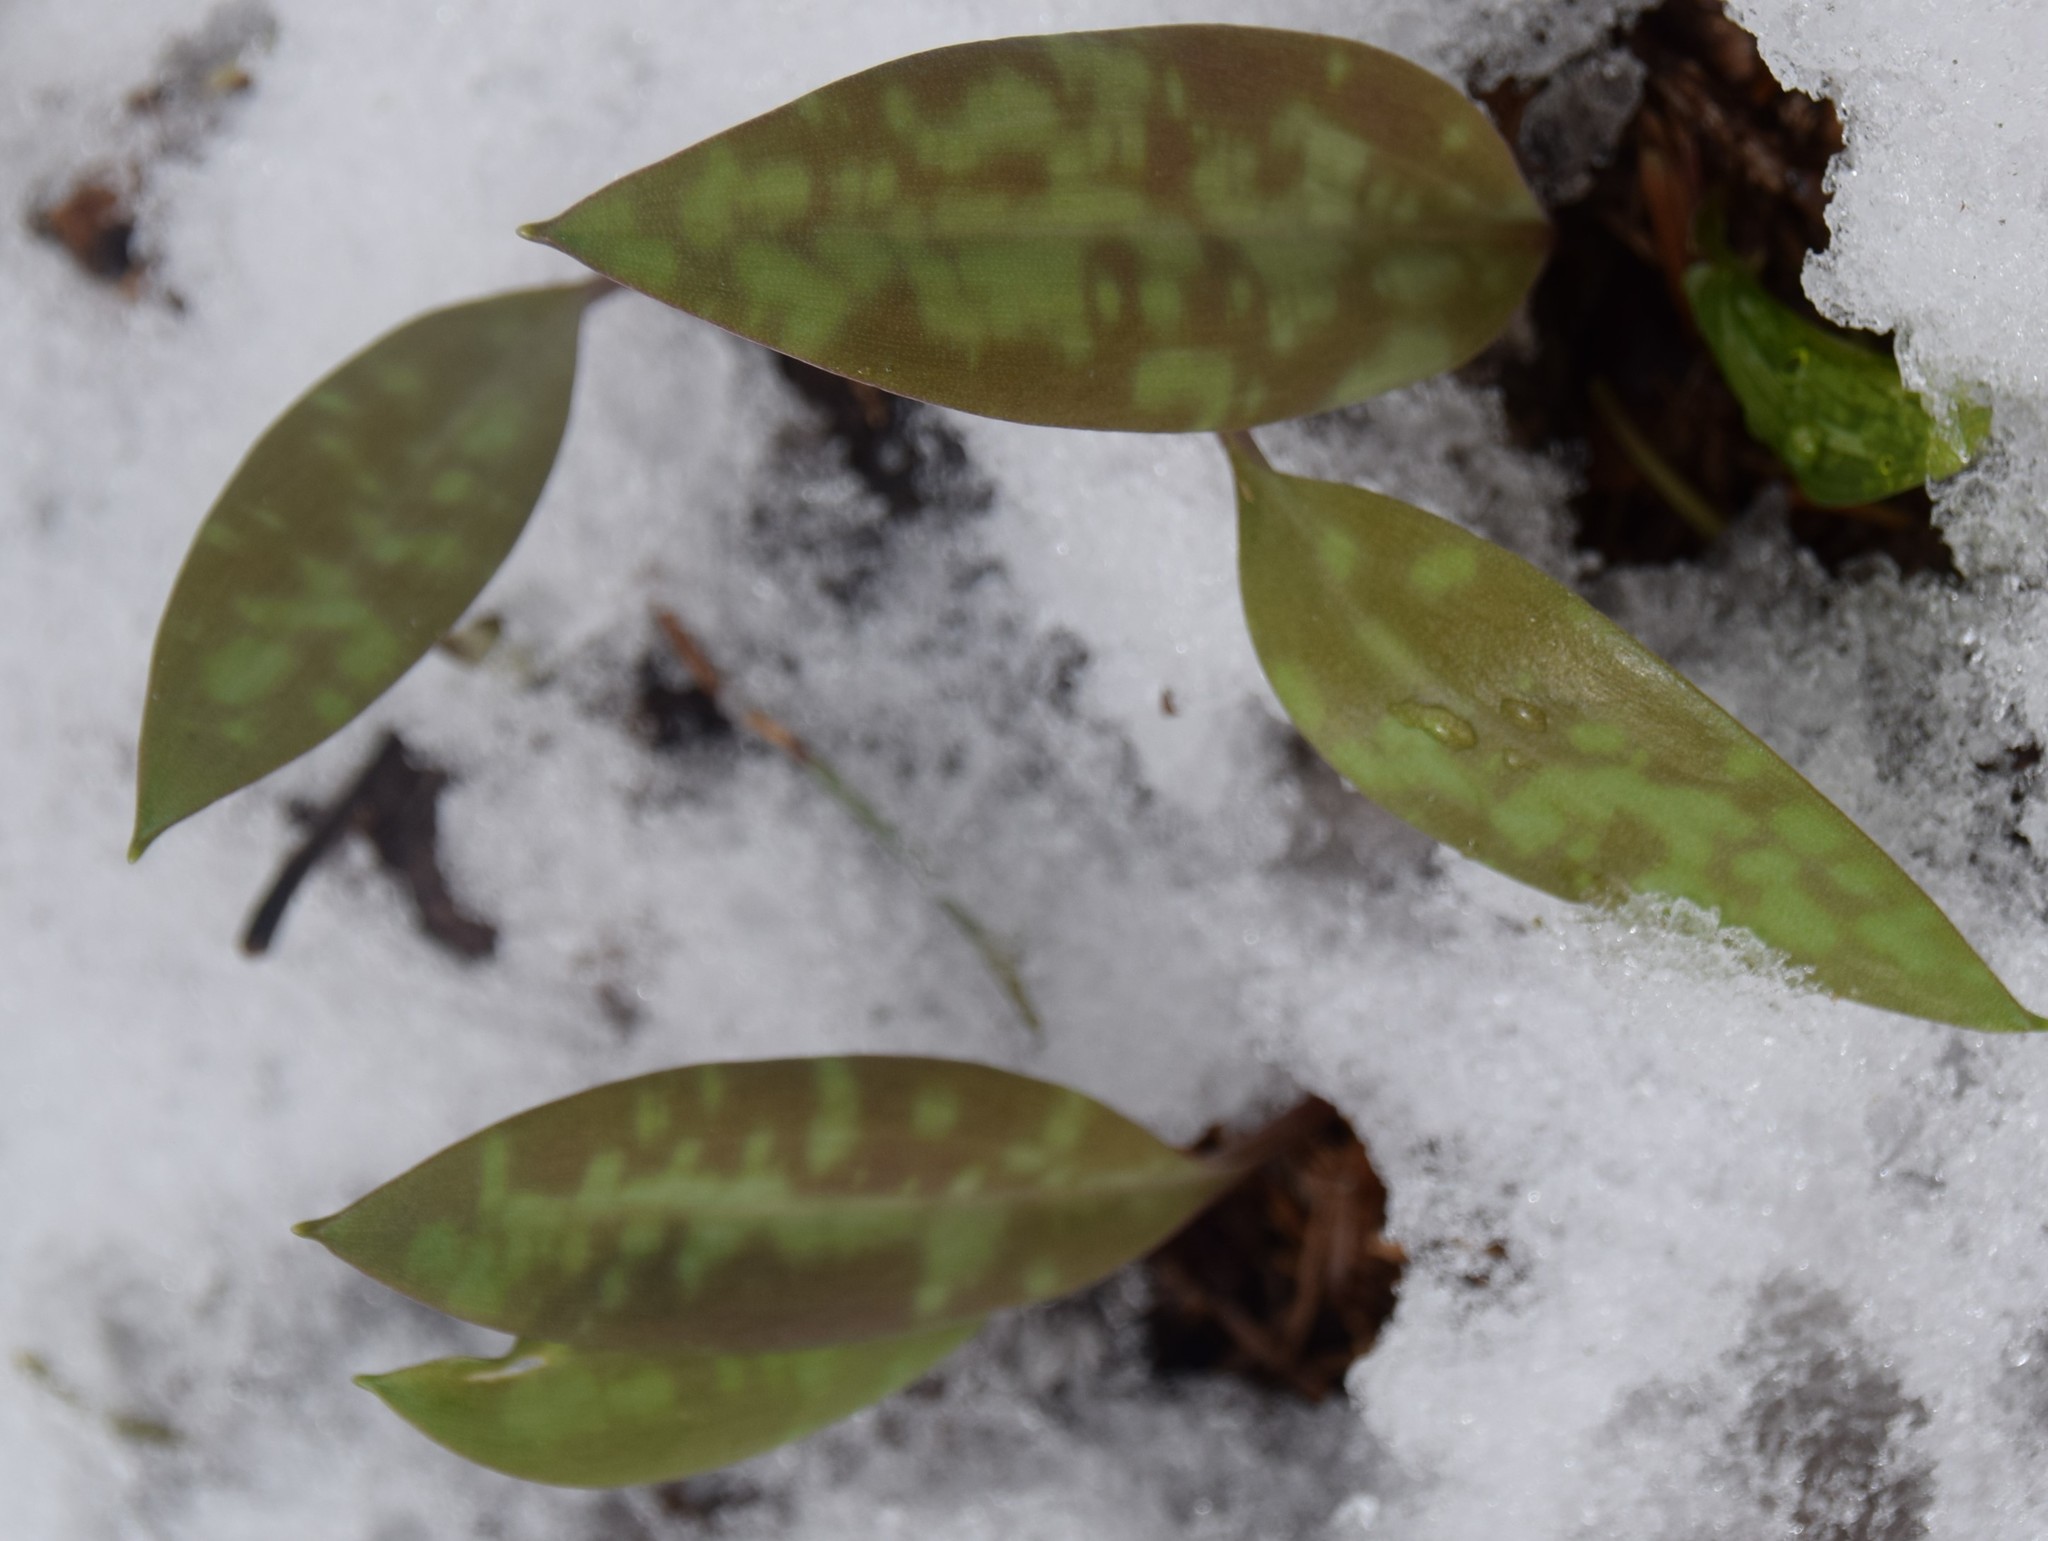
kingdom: Plantae
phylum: Tracheophyta
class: Liliopsida
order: Liliales
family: Liliaceae
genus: Erythronium
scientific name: Erythronium americanum
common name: Yellow adder's-tongue
